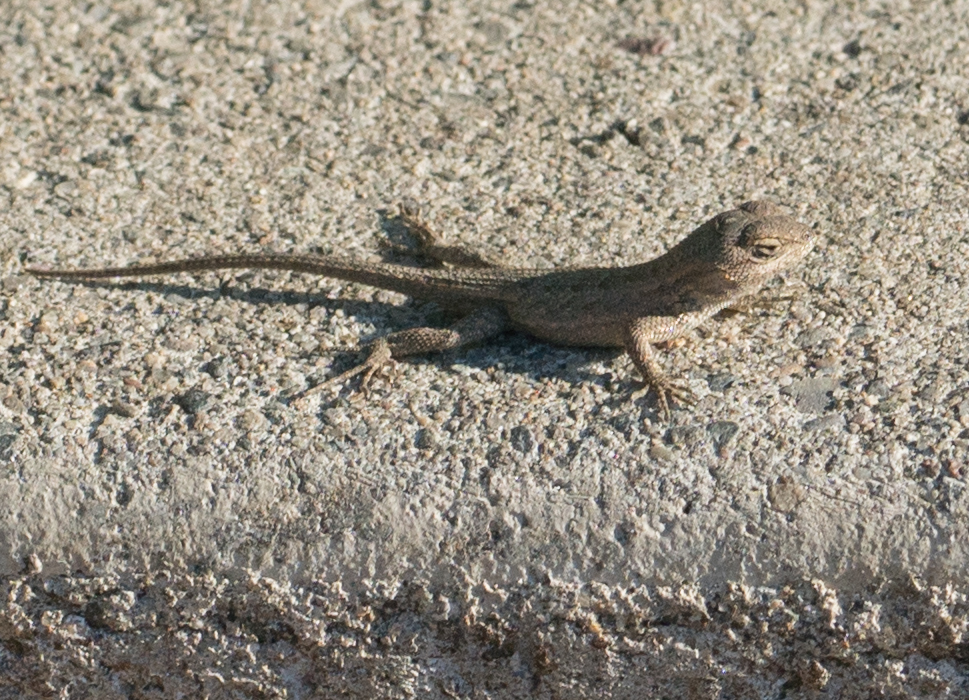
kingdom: Animalia
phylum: Chordata
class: Squamata
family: Phrynosomatidae
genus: Sceloporus
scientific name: Sceloporus occidentalis
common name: Western fence lizard
